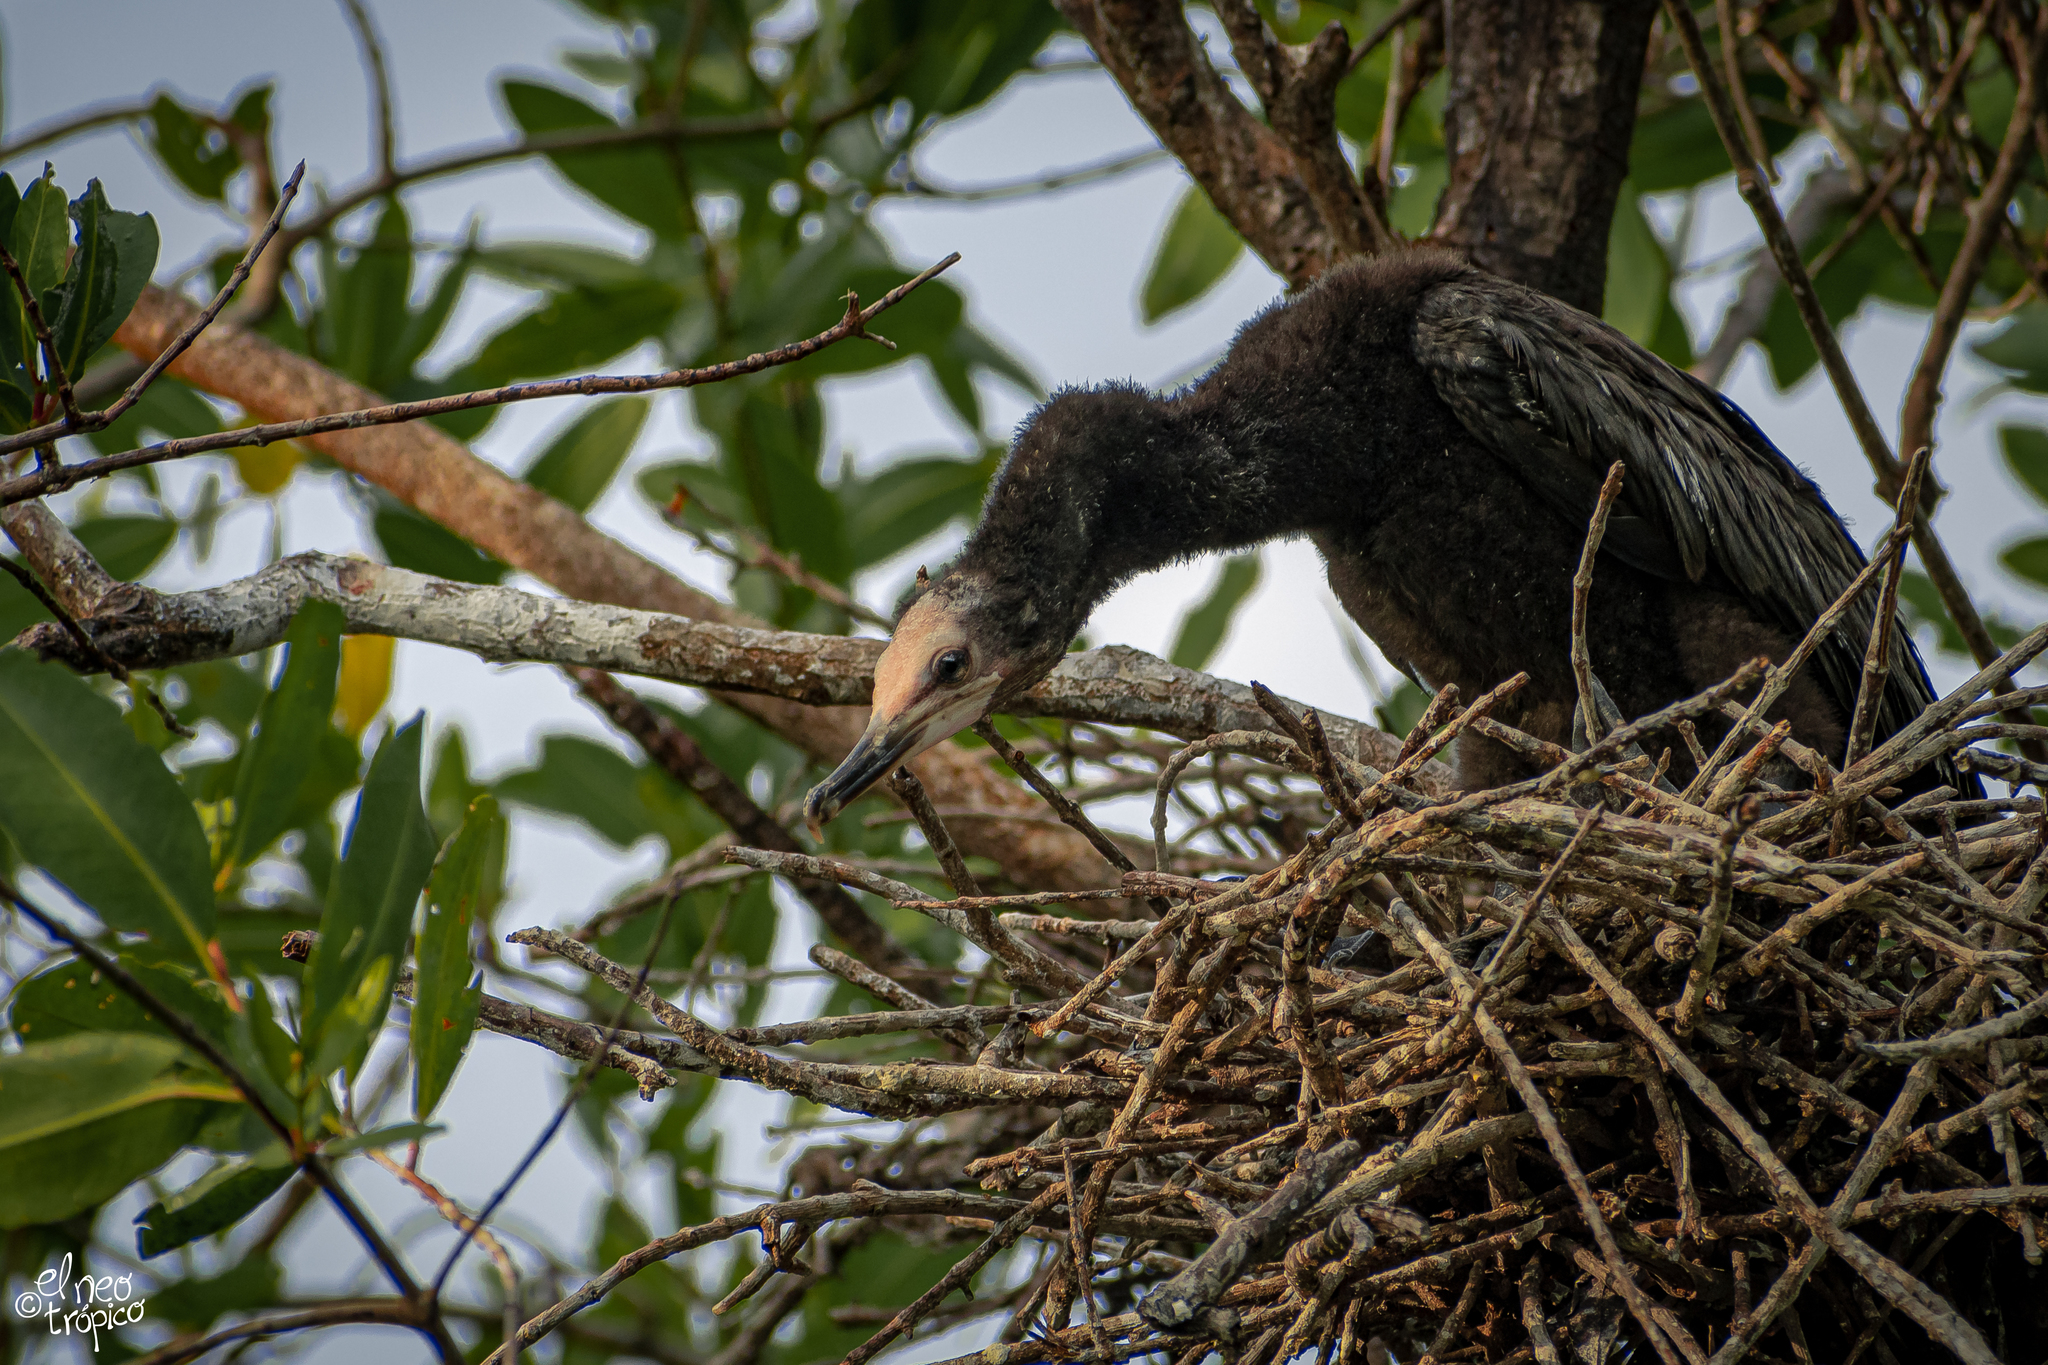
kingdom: Animalia
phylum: Chordata
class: Aves
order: Suliformes
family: Phalacrocoracidae
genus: Phalacrocorax
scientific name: Phalacrocorax brasilianus
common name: Neotropic cormorant
